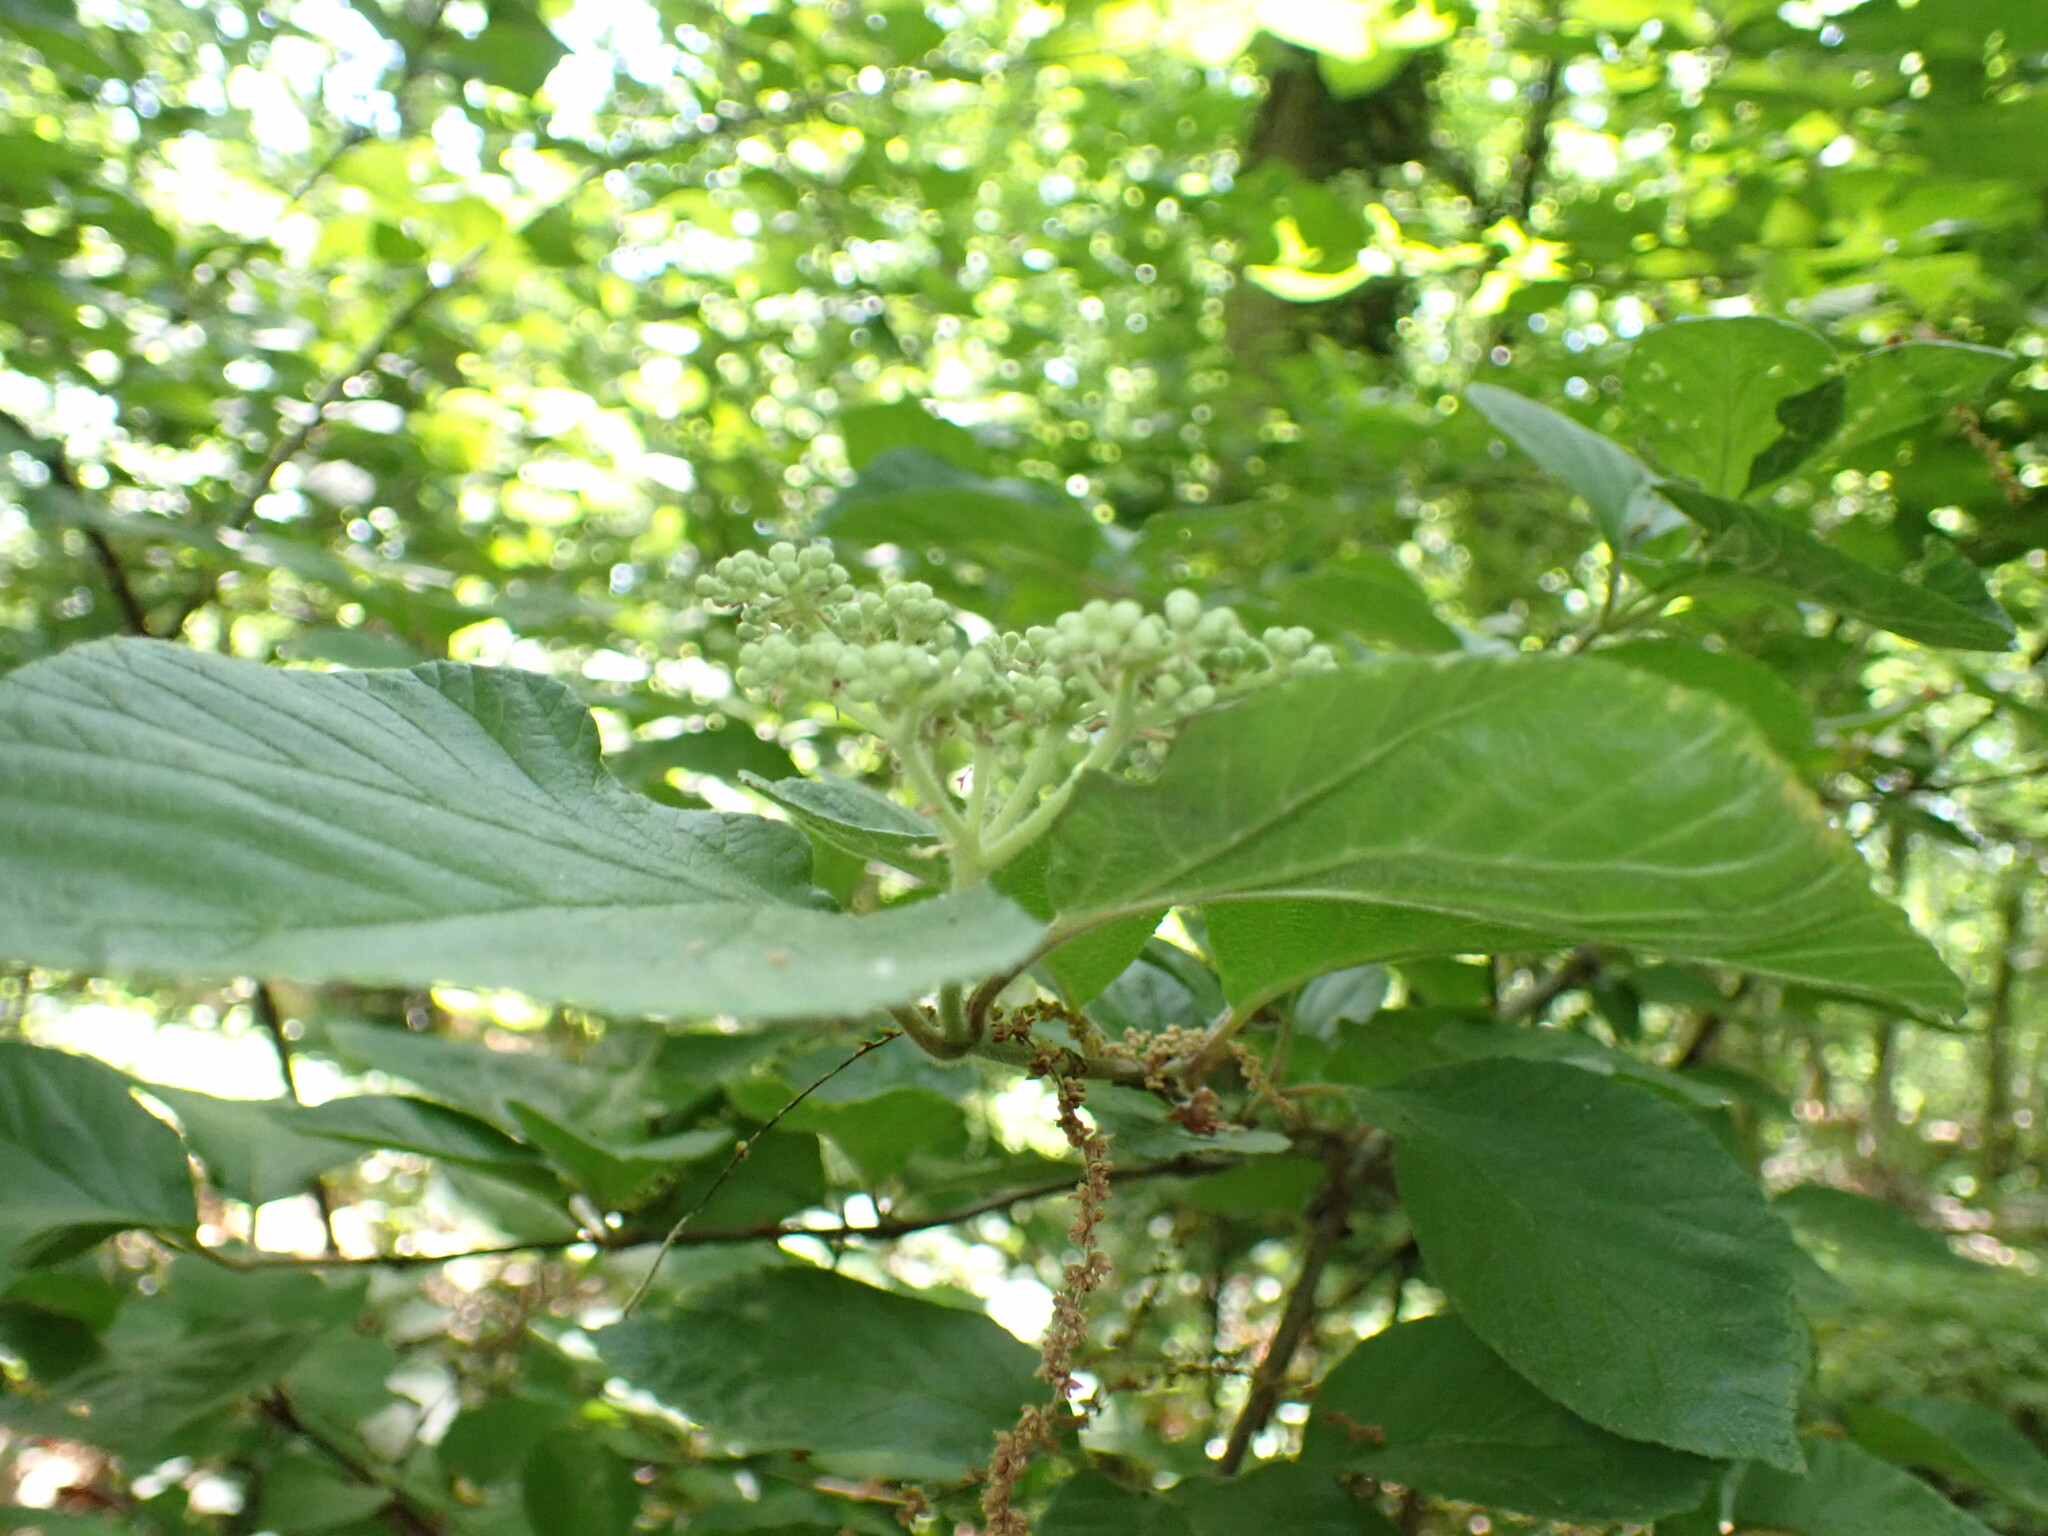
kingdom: Plantae
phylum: Tracheophyta
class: Magnoliopsida
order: Dipsacales
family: Viburnaceae
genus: Viburnum
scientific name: Viburnum dilatatum
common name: Linden arrowwood
